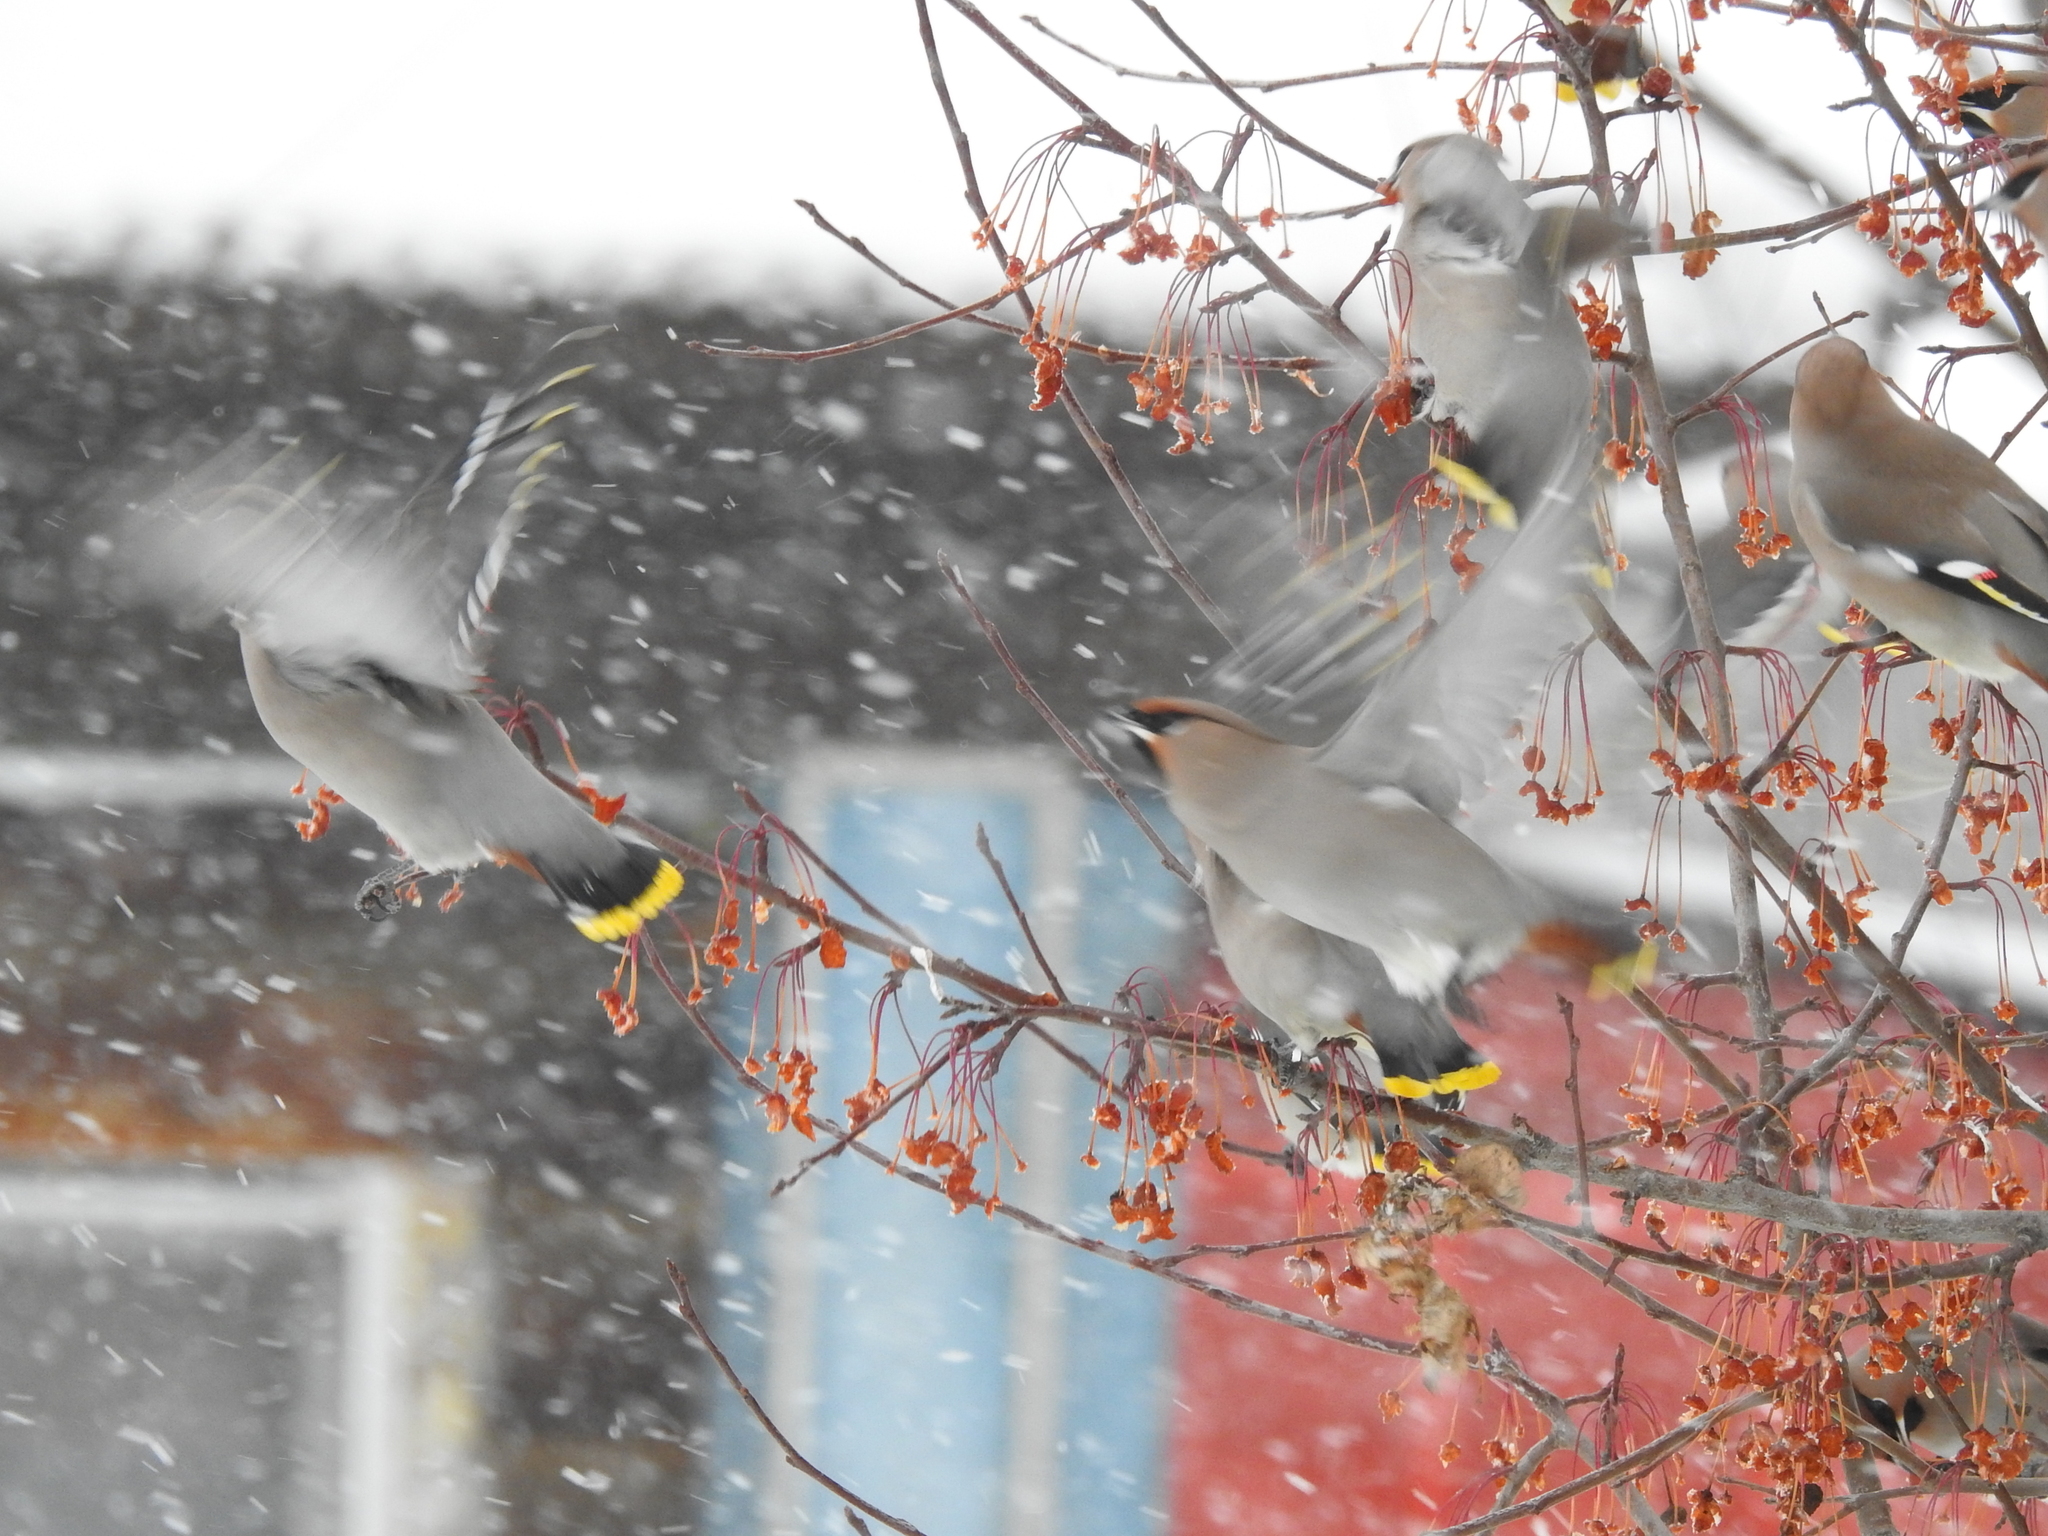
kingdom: Animalia
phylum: Chordata
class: Aves
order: Passeriformes
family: Bombycillidae
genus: Bombycilla
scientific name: Bombycilla garrulus
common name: Bohemian waxwing
